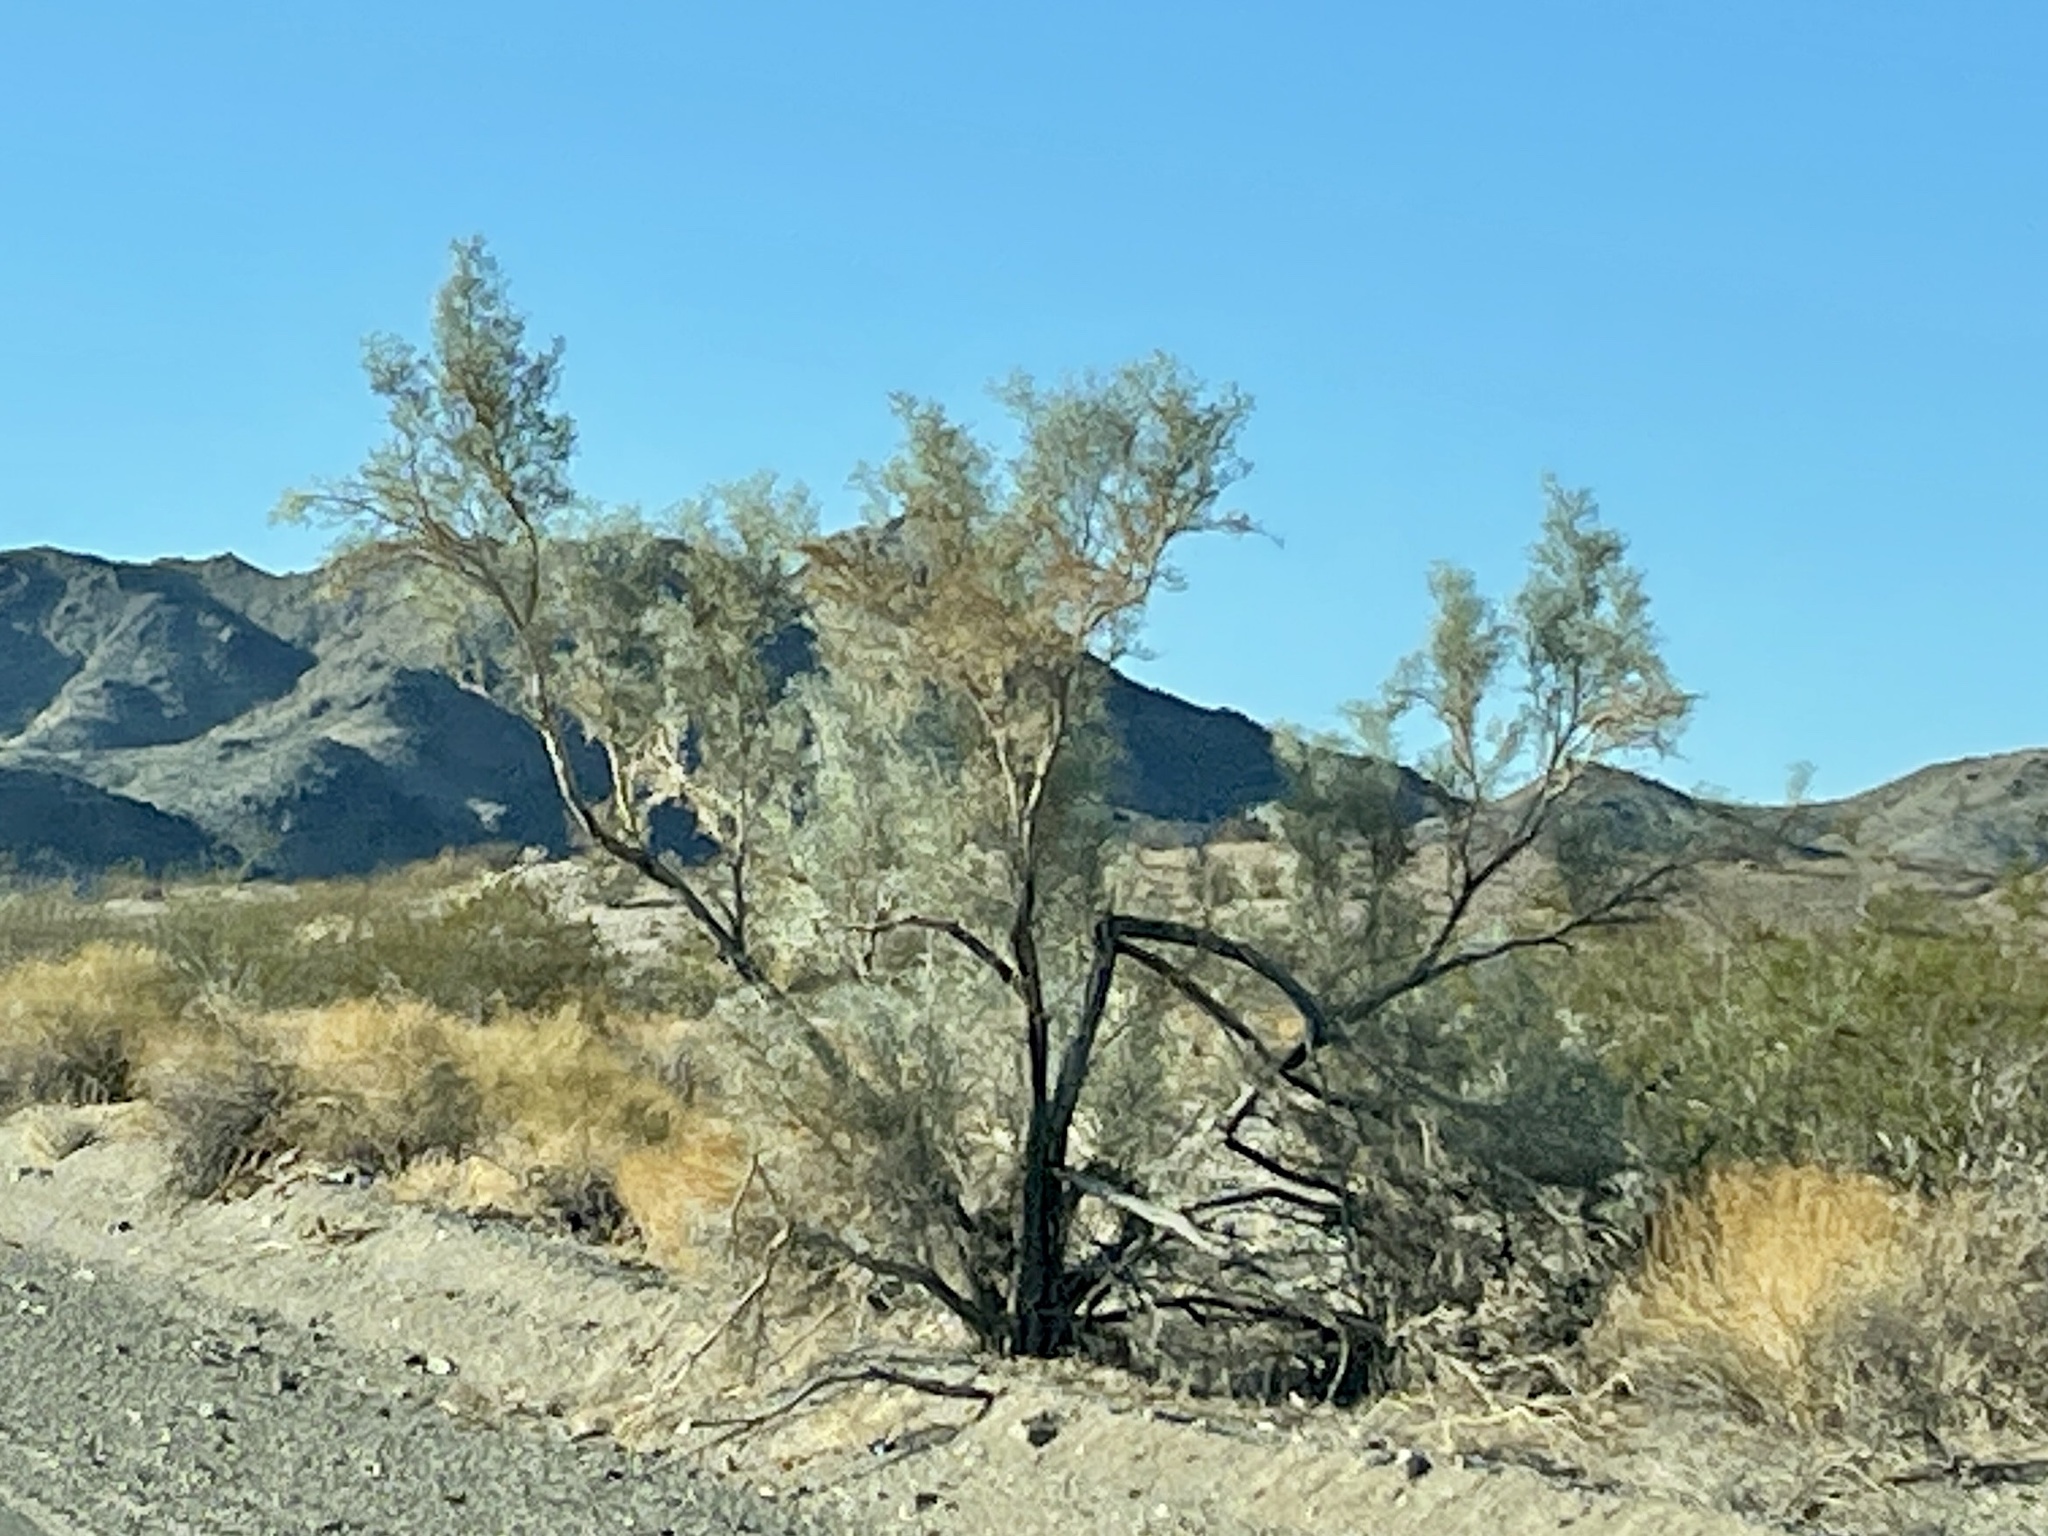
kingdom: Plantae
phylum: Tracheophyta
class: Magnoliopsida
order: Fabales
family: Fabaceae
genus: Psorothamnus
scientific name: Psorothamnus spinosus
